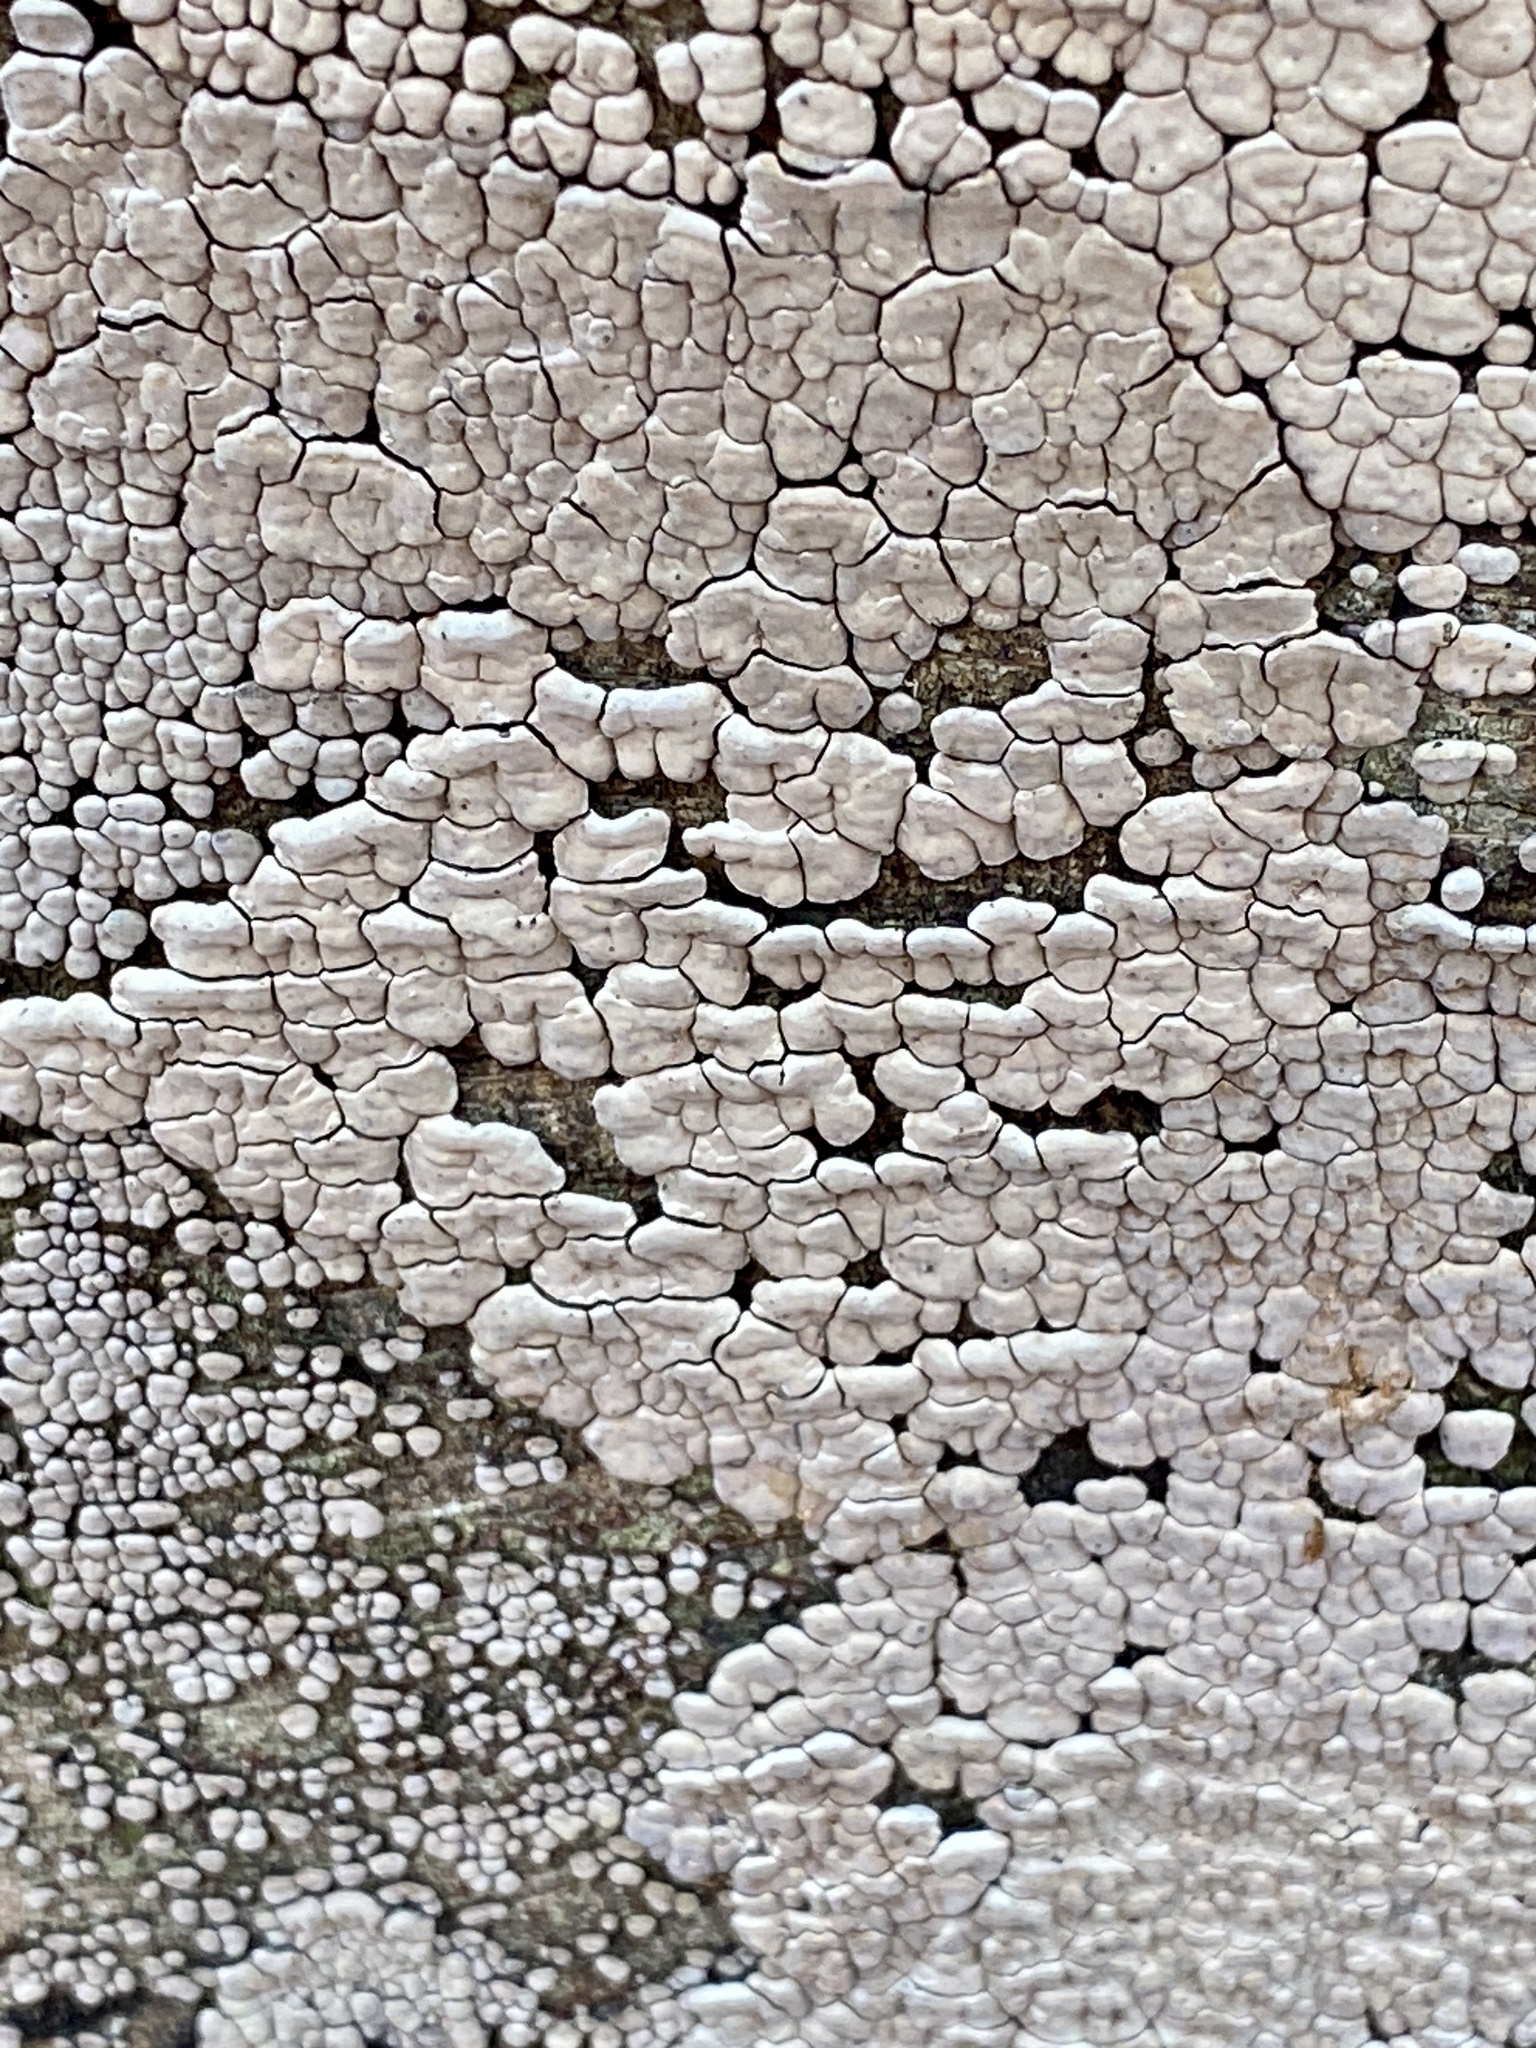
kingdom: Fungi
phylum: Basidiomycota
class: Agaricomycetes
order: Russulales
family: Stereaceae
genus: Xylobolus
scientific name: Xylobolus frustulatus
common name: Ceramic parchment
